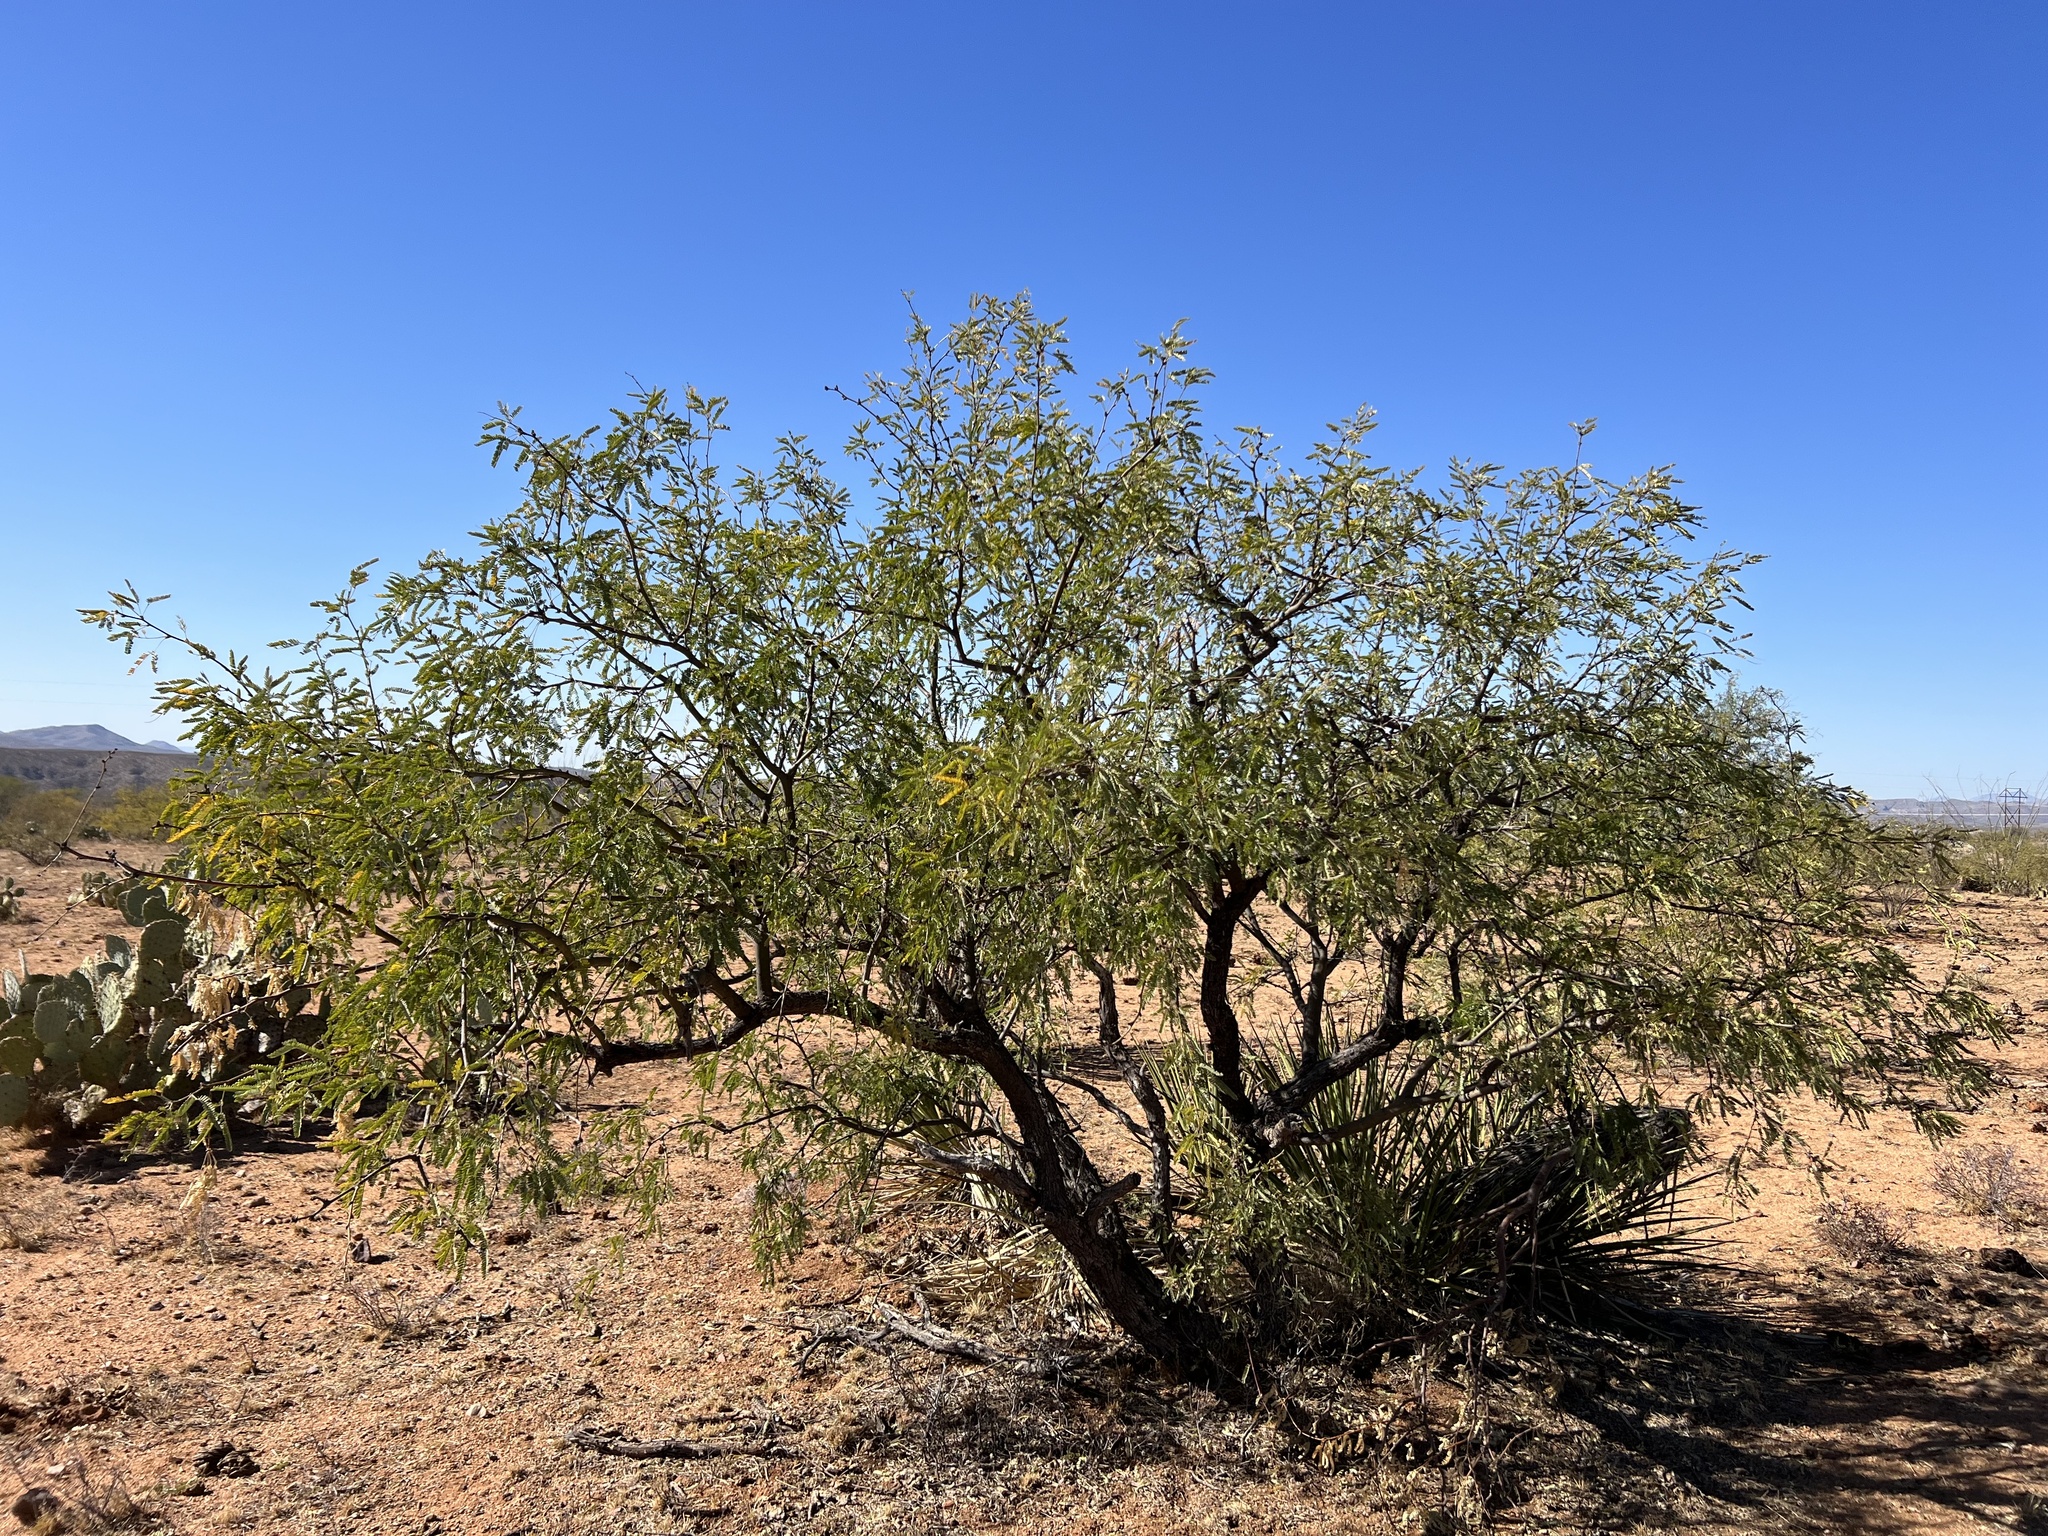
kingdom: Plantae
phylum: Tracheophyta
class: Magnoliopsida
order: Fabales
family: Fabaceae
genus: Prosopis
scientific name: Prosopis velutina
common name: Velvet mesquite
